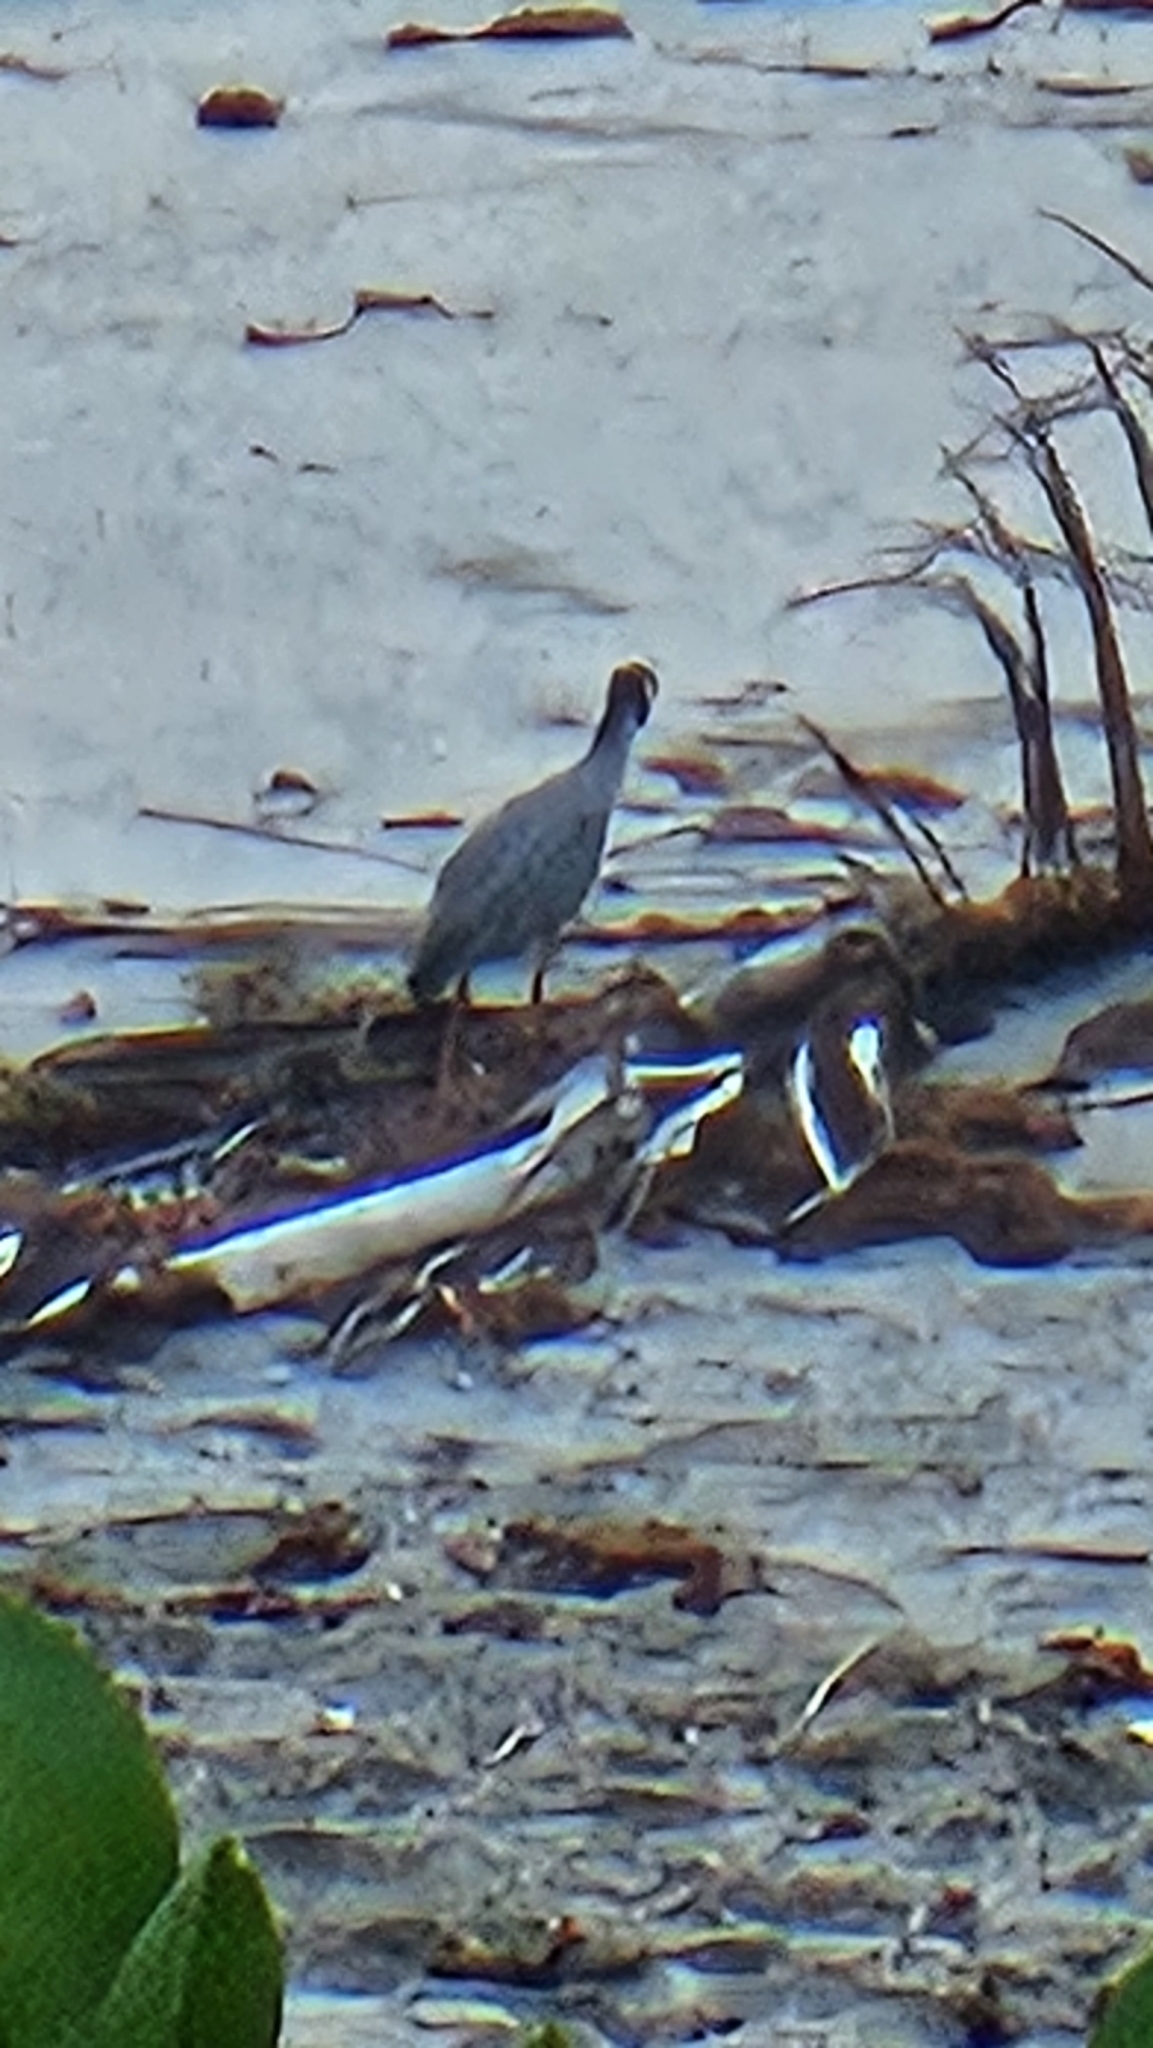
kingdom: Animalia
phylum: Chordata
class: Aves
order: Pelecaniformes
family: Ardeidae
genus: Nyctanassa
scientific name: Nyctanassa violacea
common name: Yellow-crowned night heron
